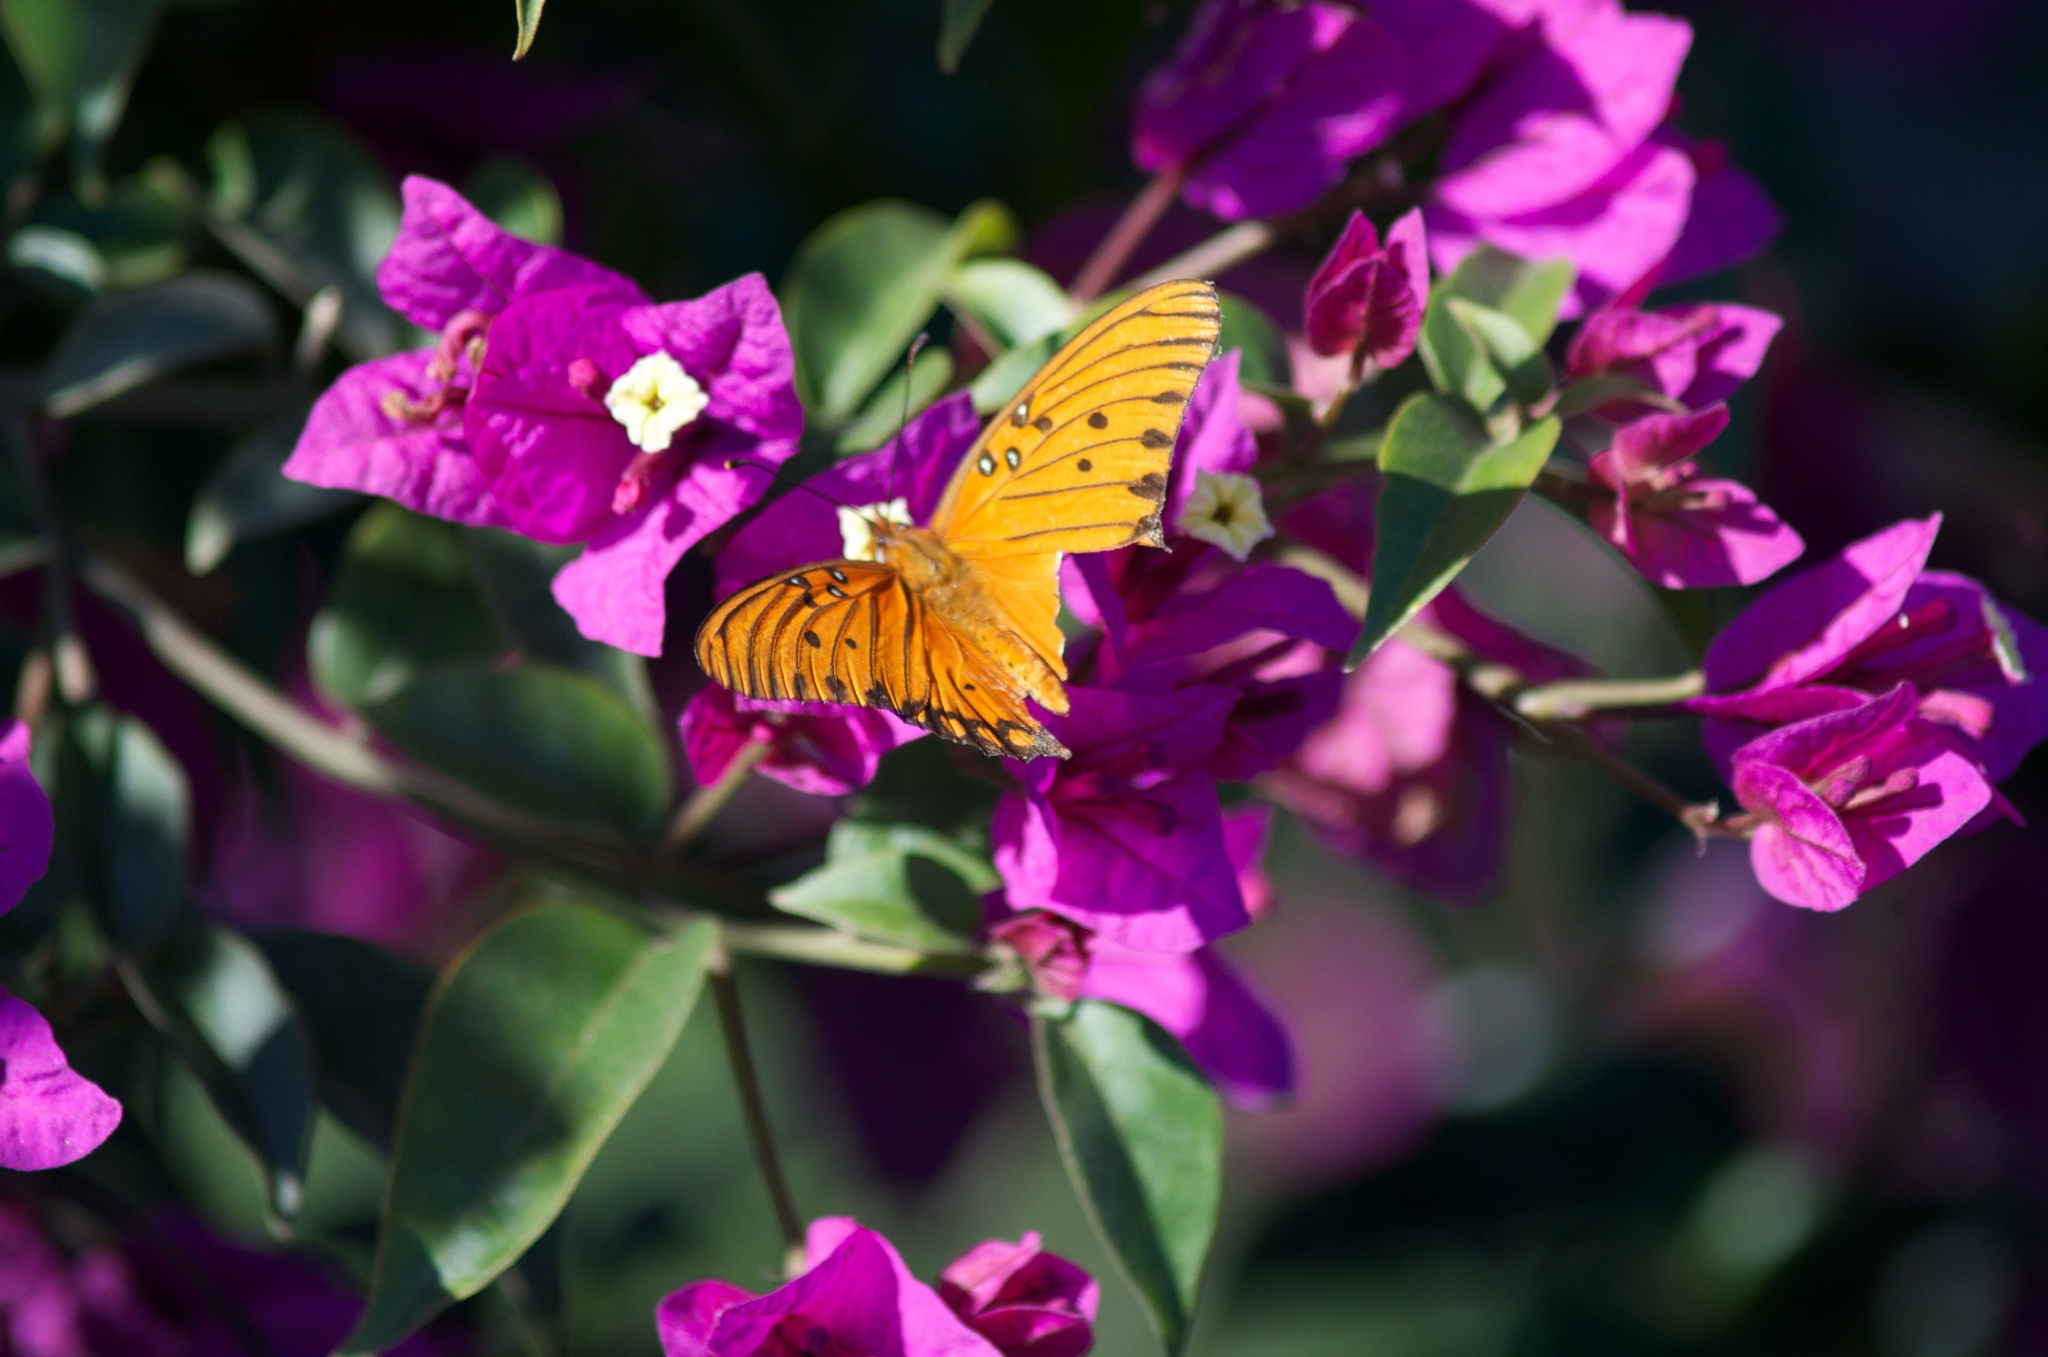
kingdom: Animalia
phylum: Arthropoda
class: Insecta
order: Lepidoptera
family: Nymphalidae
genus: Dione
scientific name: Dione vanillae
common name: Gulf fritillary
